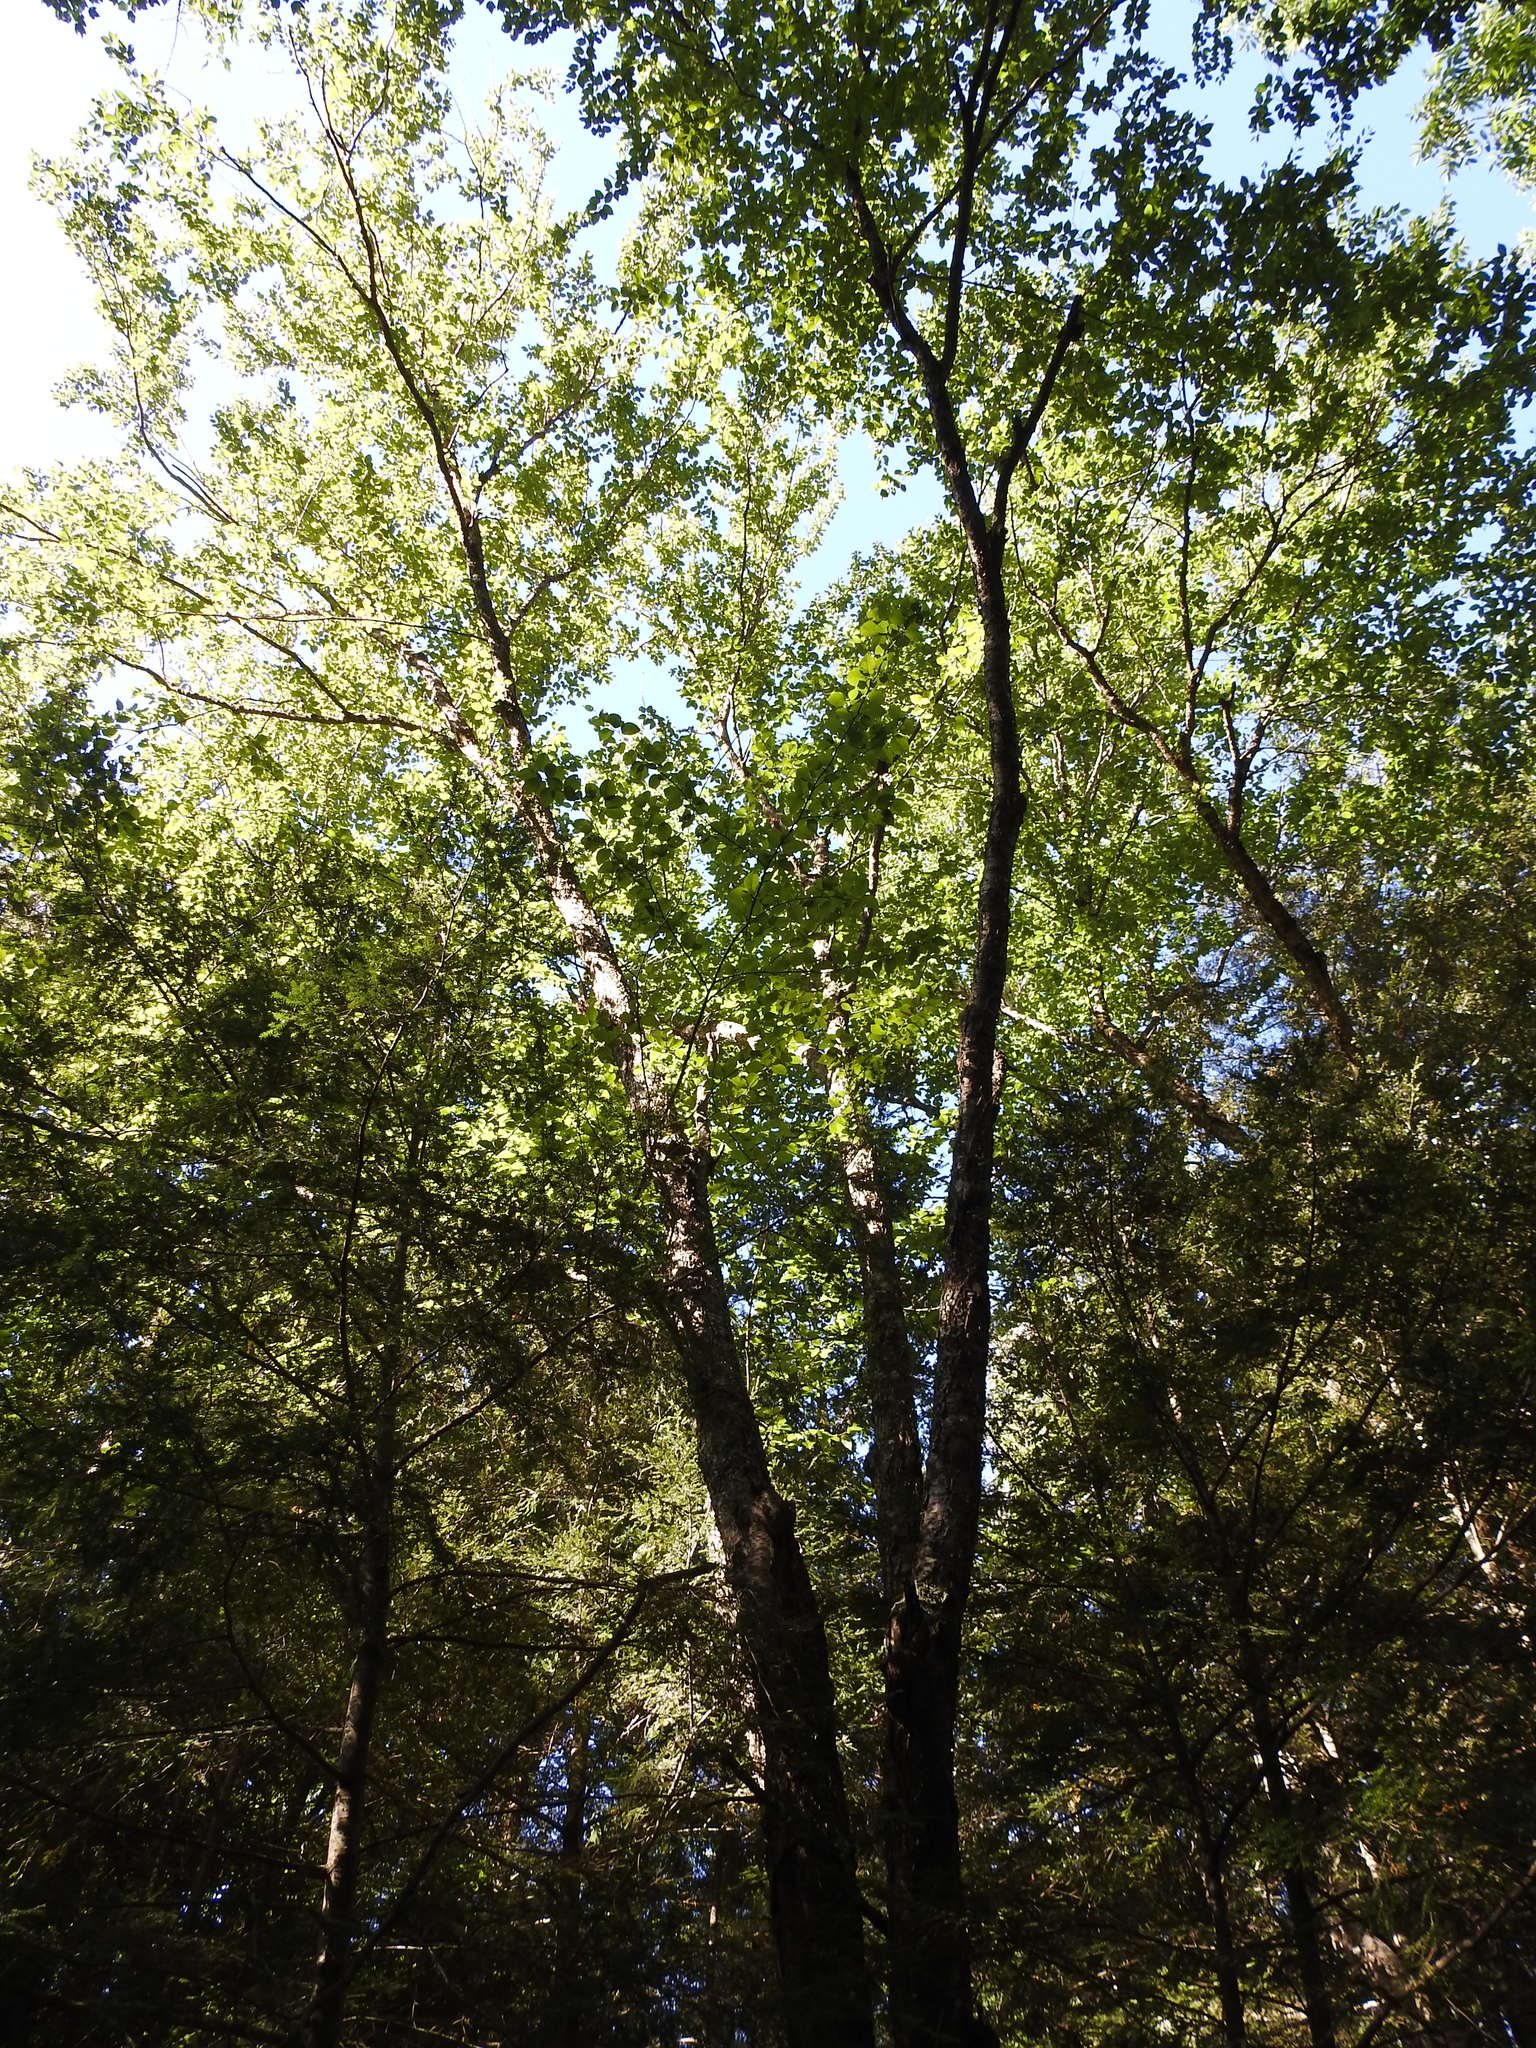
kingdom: Plantae
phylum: Tracheophyta
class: Magnoliopsida
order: Fagales
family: Betulaceae
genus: Betula
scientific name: Betula alleghaniensis
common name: Yellow birch
